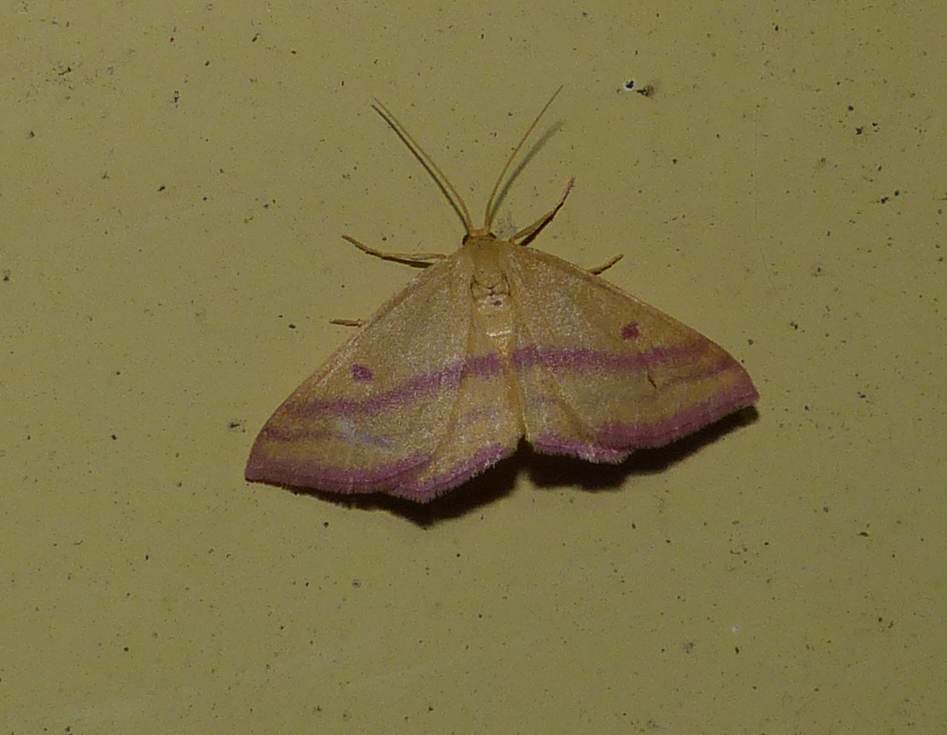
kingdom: Animalia
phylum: Arthropoda
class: Insecta
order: Lepidoptera
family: Geometridae
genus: Haematopis
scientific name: Haematopis grataria
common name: Chickweed geometer
